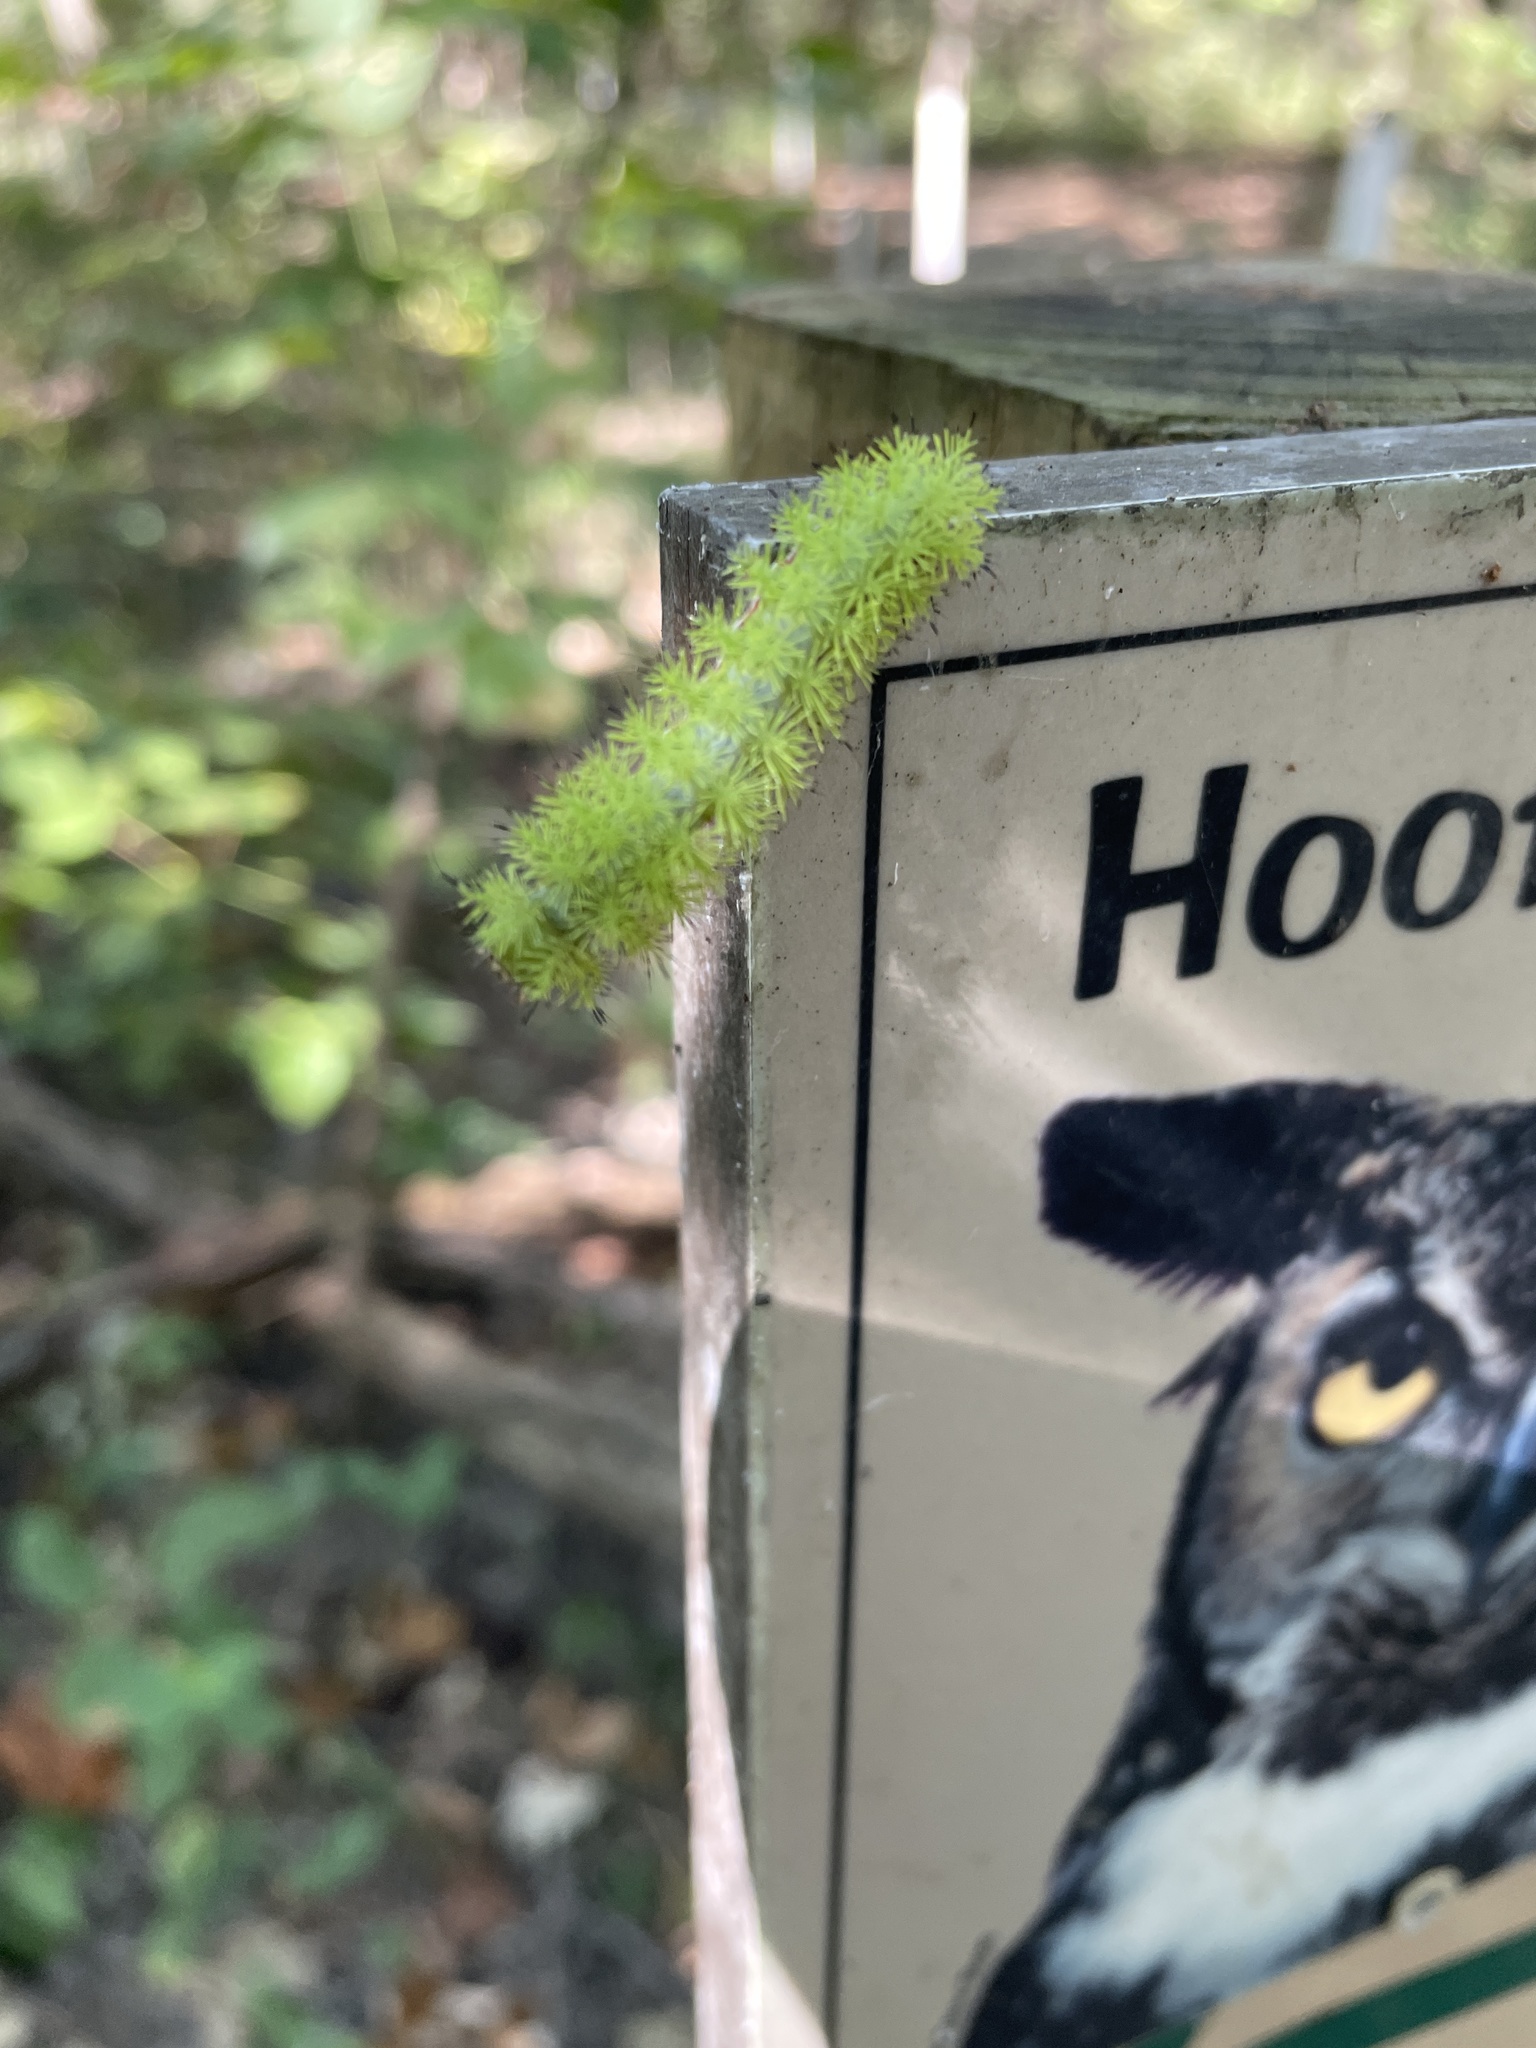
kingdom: Animalia
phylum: Arthropoda
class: Insecta
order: Lepidoptera
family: Saturniidae
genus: Automeris
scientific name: Automeris io
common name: Io moth
